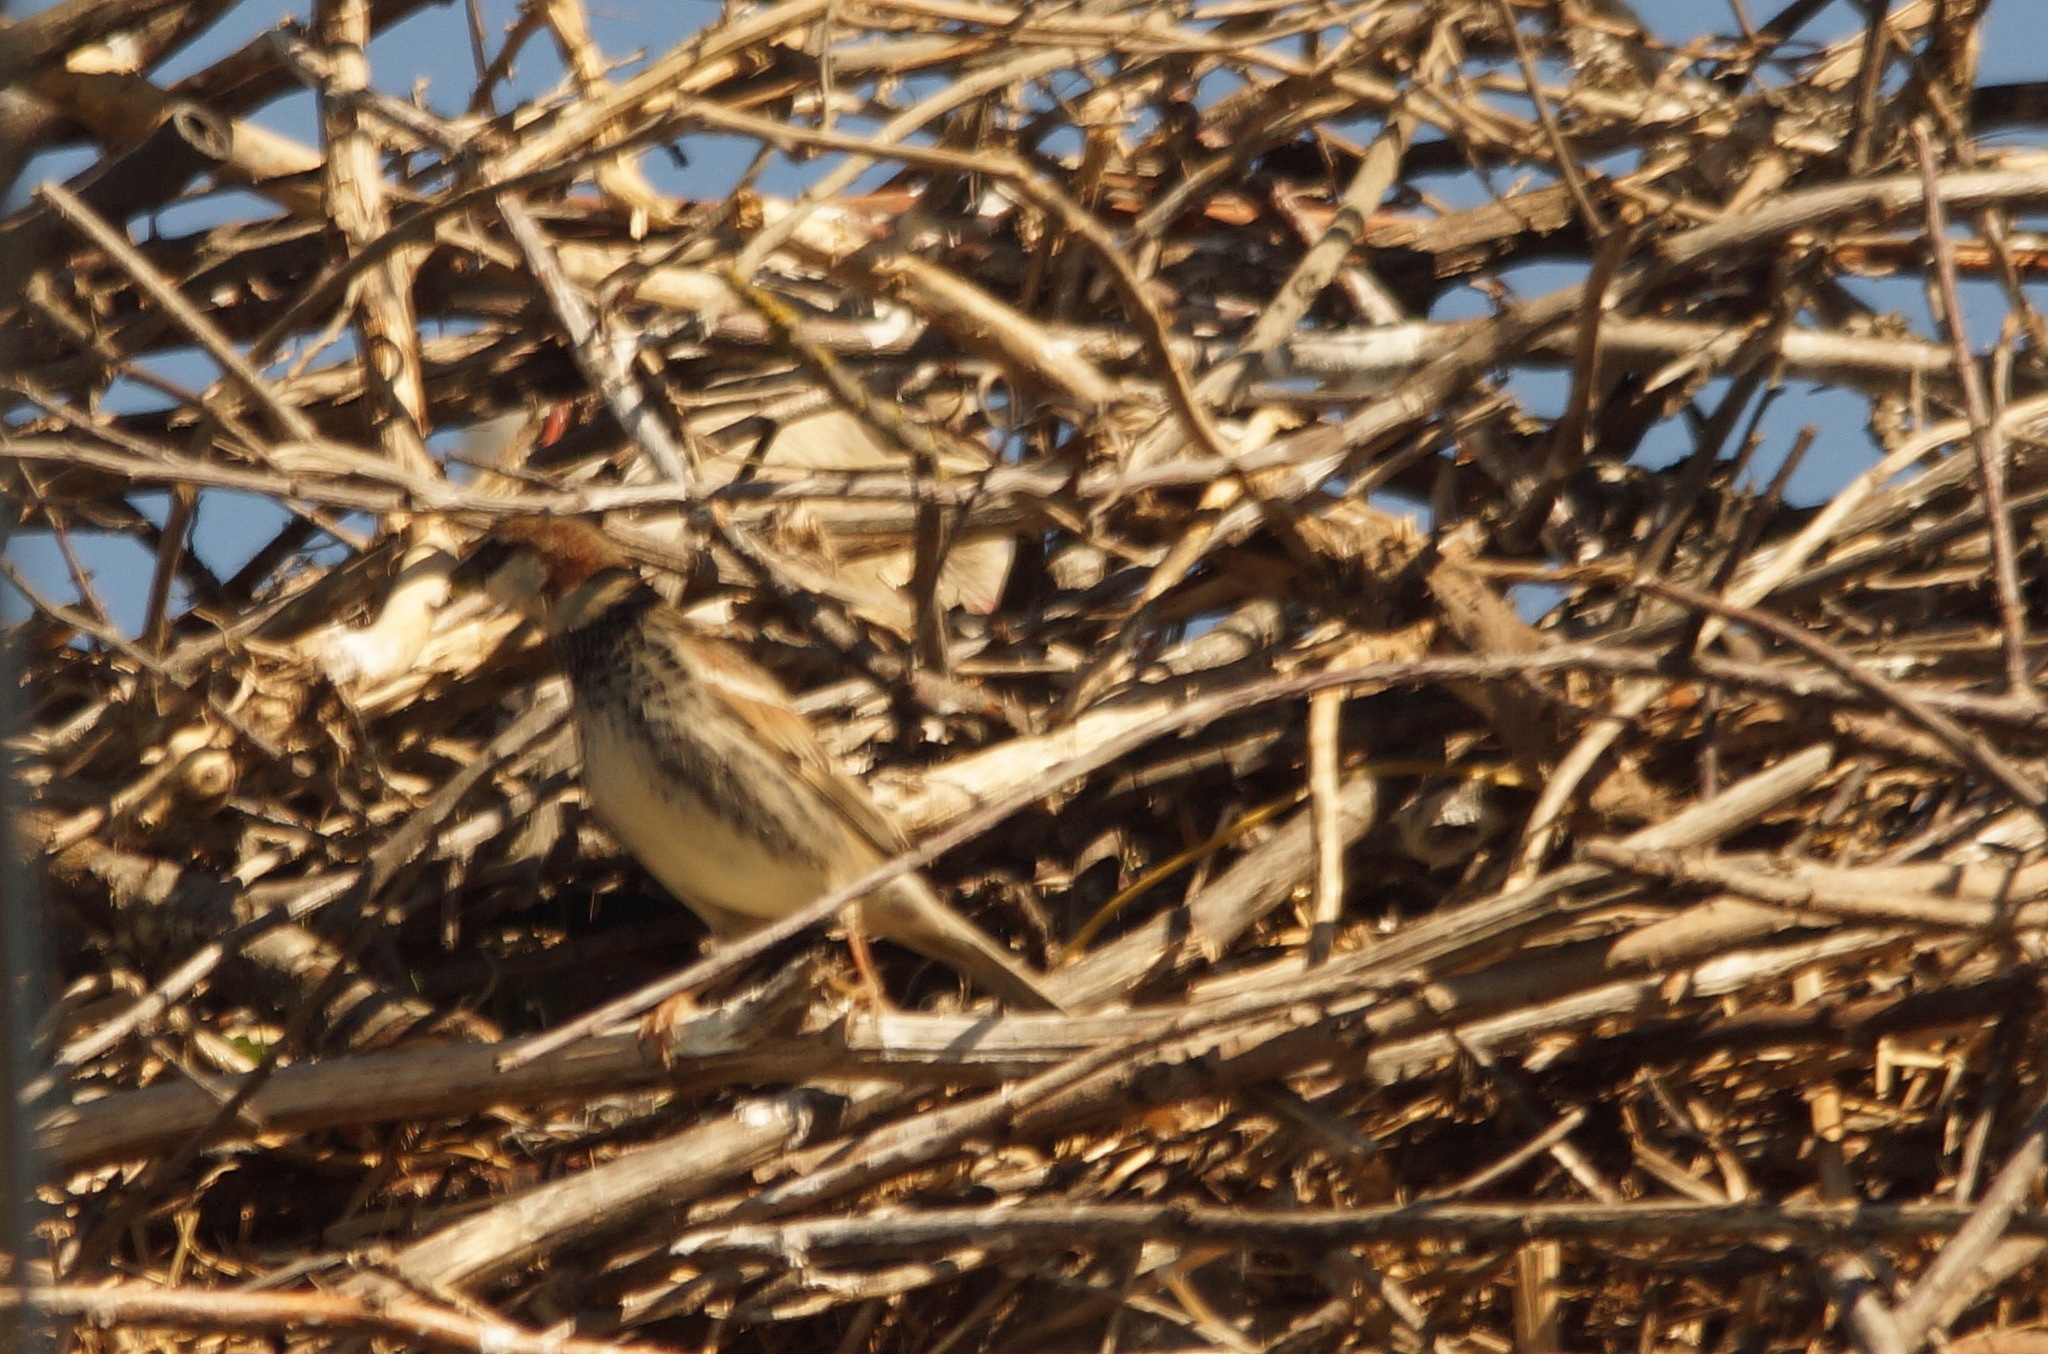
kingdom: Animalia
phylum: Chordata
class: Aves
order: Passeriformes
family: Passeridae
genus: Passer
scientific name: Passer hispaniolensis
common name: Spanish sparrow
